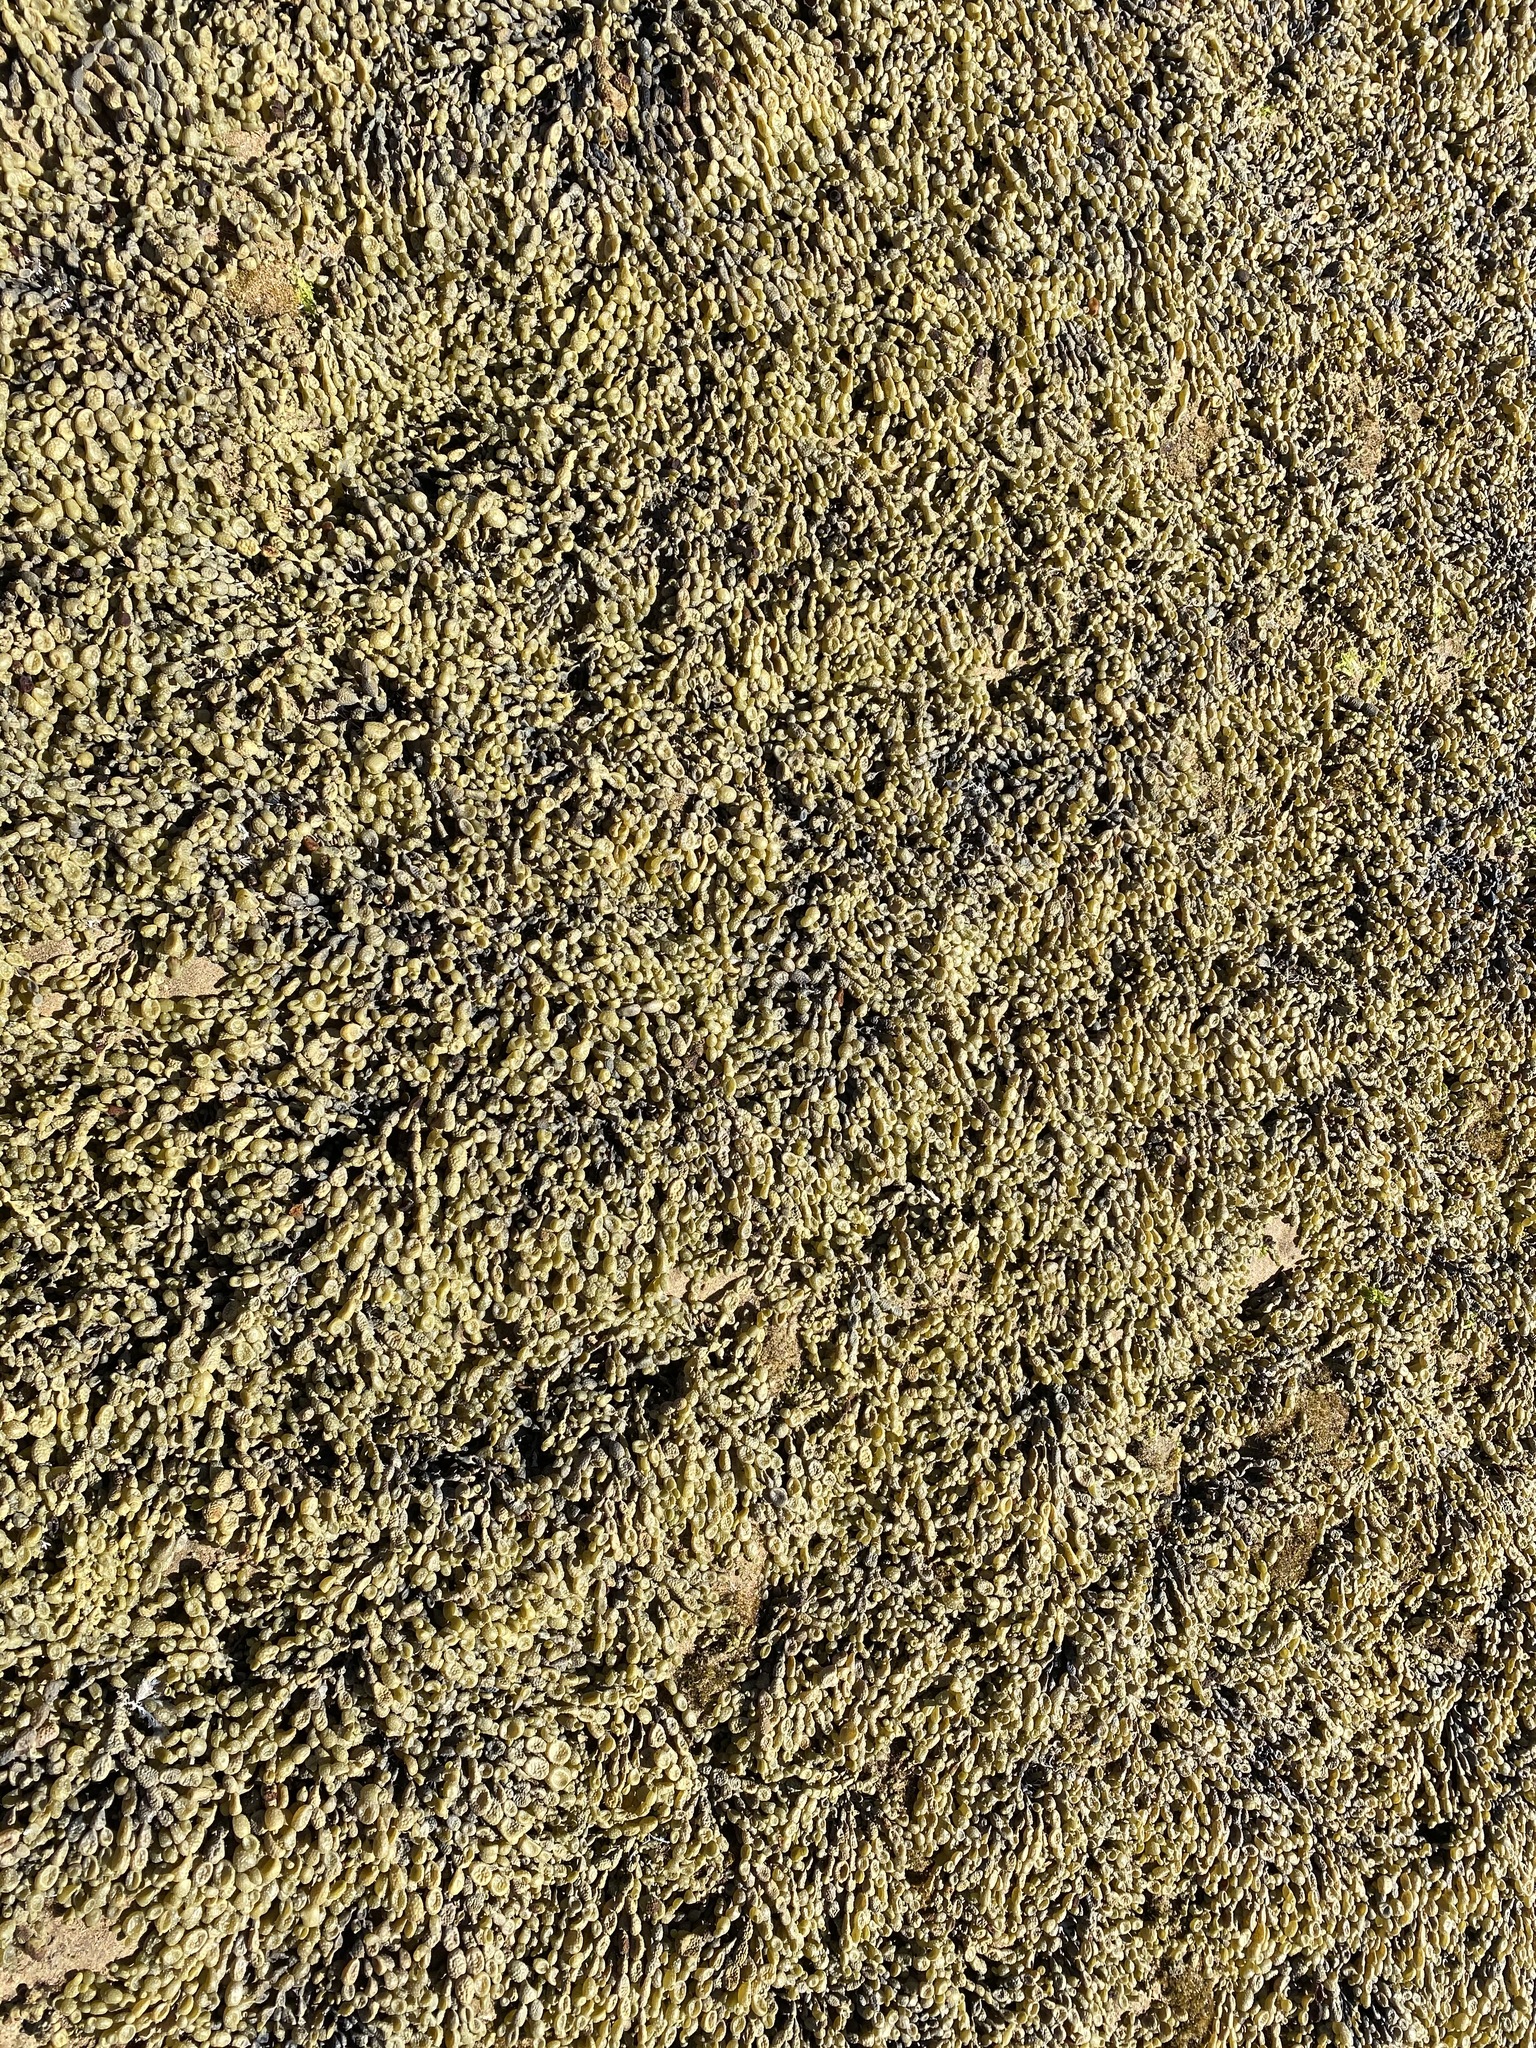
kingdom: Chromista
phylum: Ochrophyta
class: Phaeophyceae
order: Fucales
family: Hormosiraceae
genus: Hormosira
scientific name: Hormosira banksii
